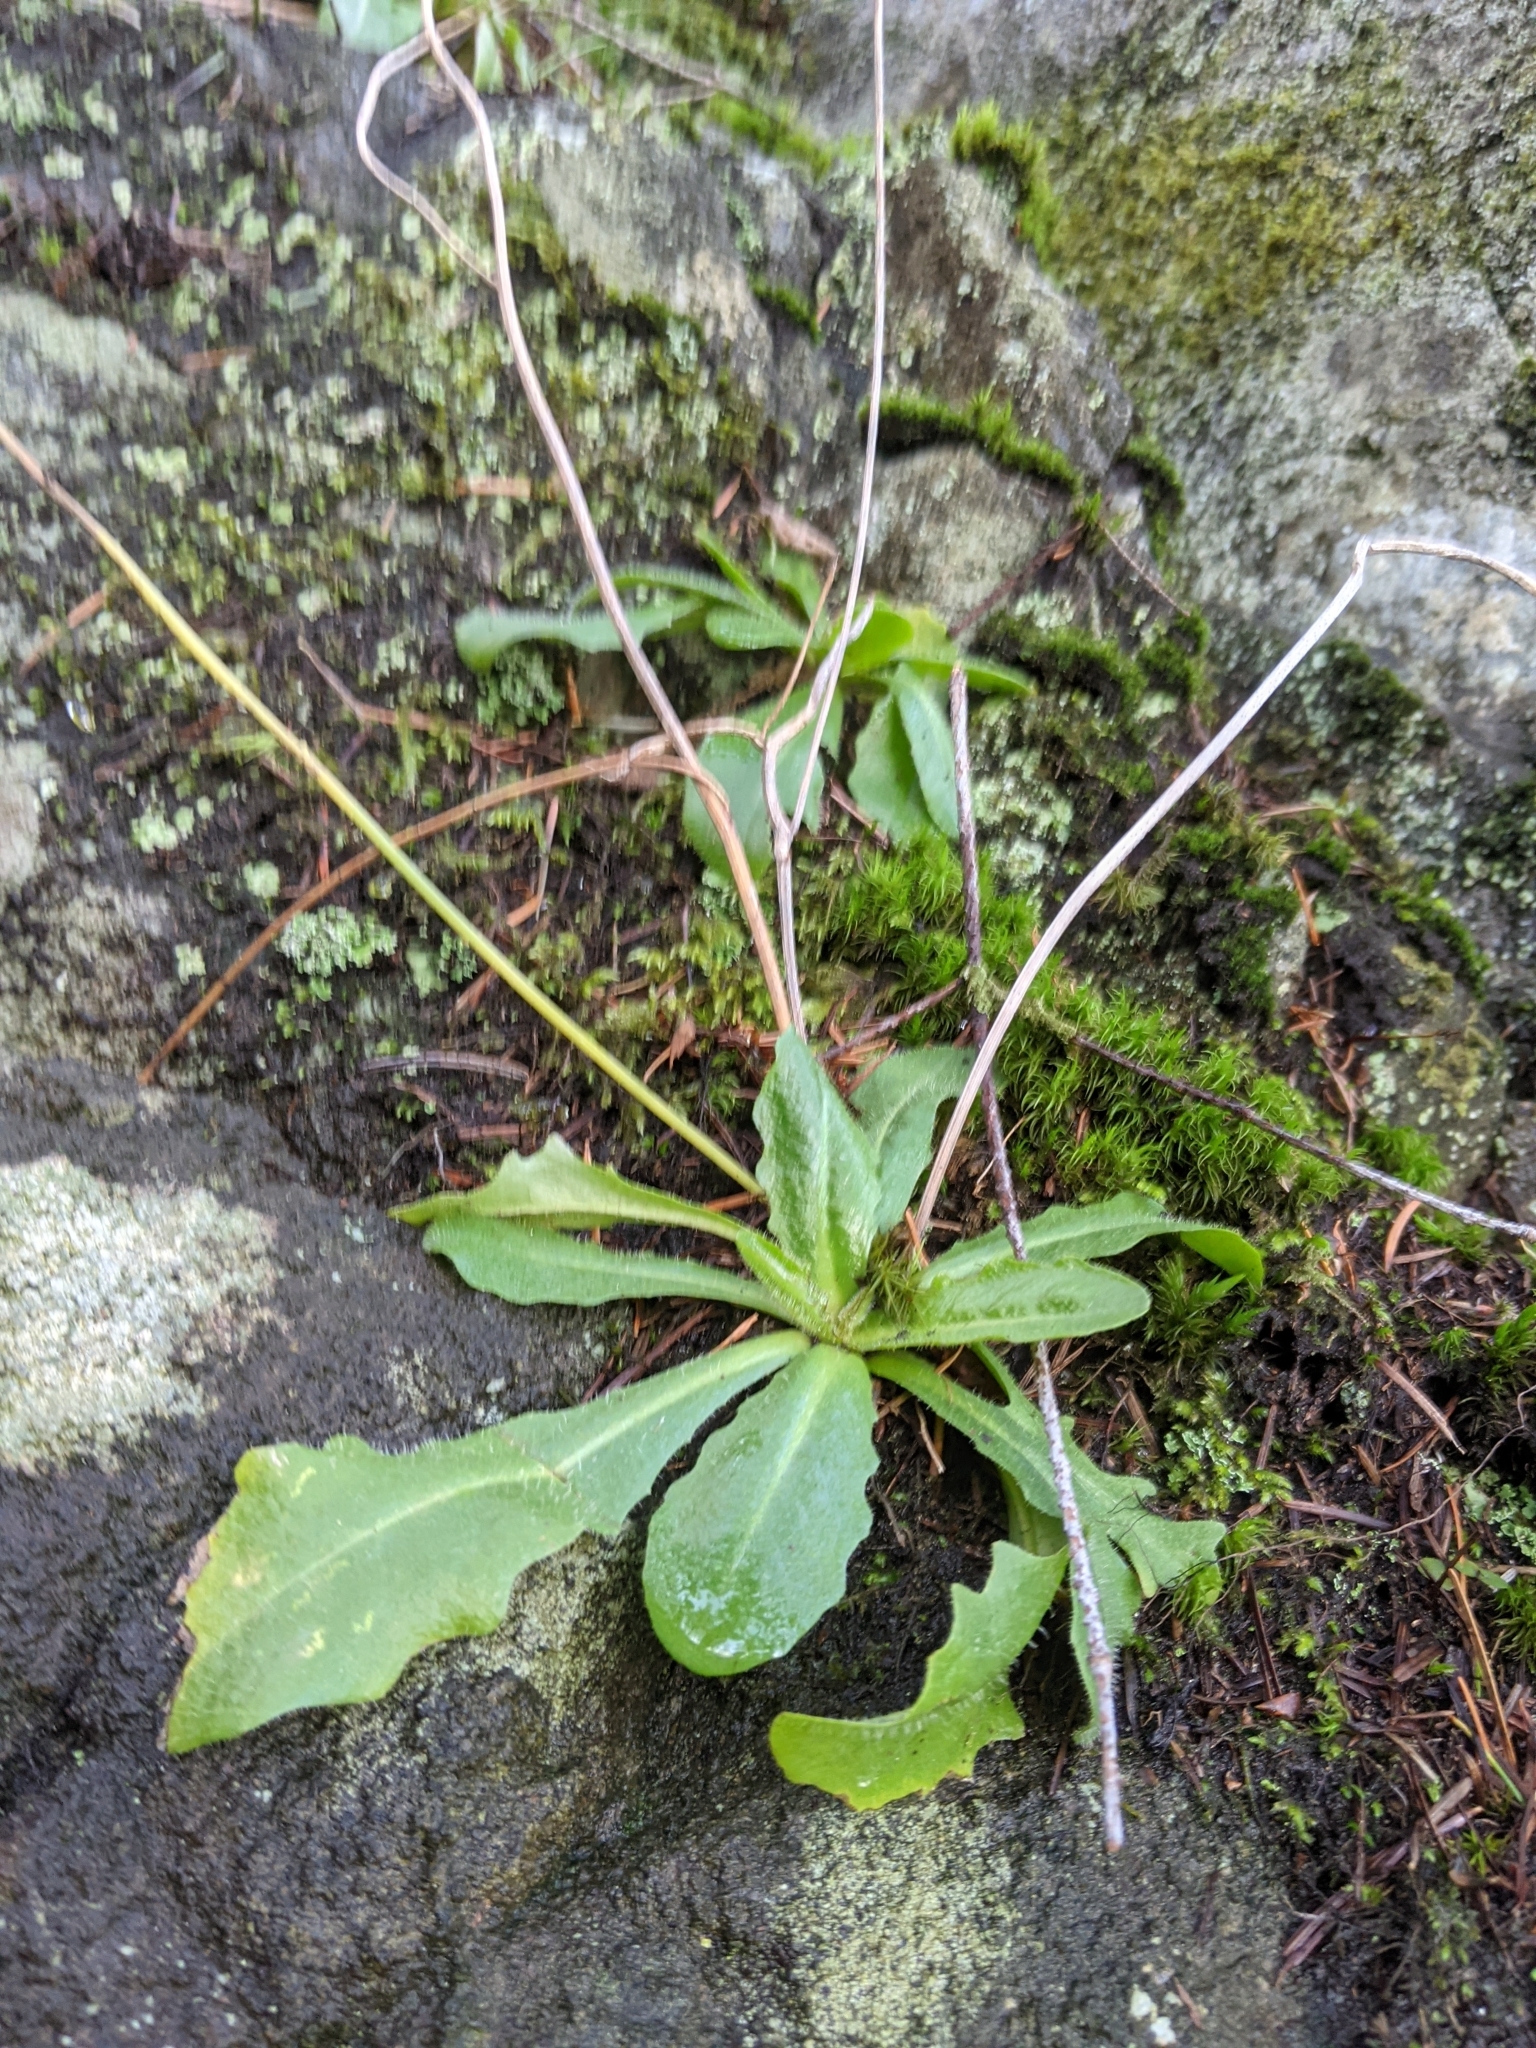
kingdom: Plantae
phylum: Tracheophyta
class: Magnoliopsida
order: Asterales
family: Asteraceae
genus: Hypochaeris
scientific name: Hypochaeris radicata
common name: Flatweed
